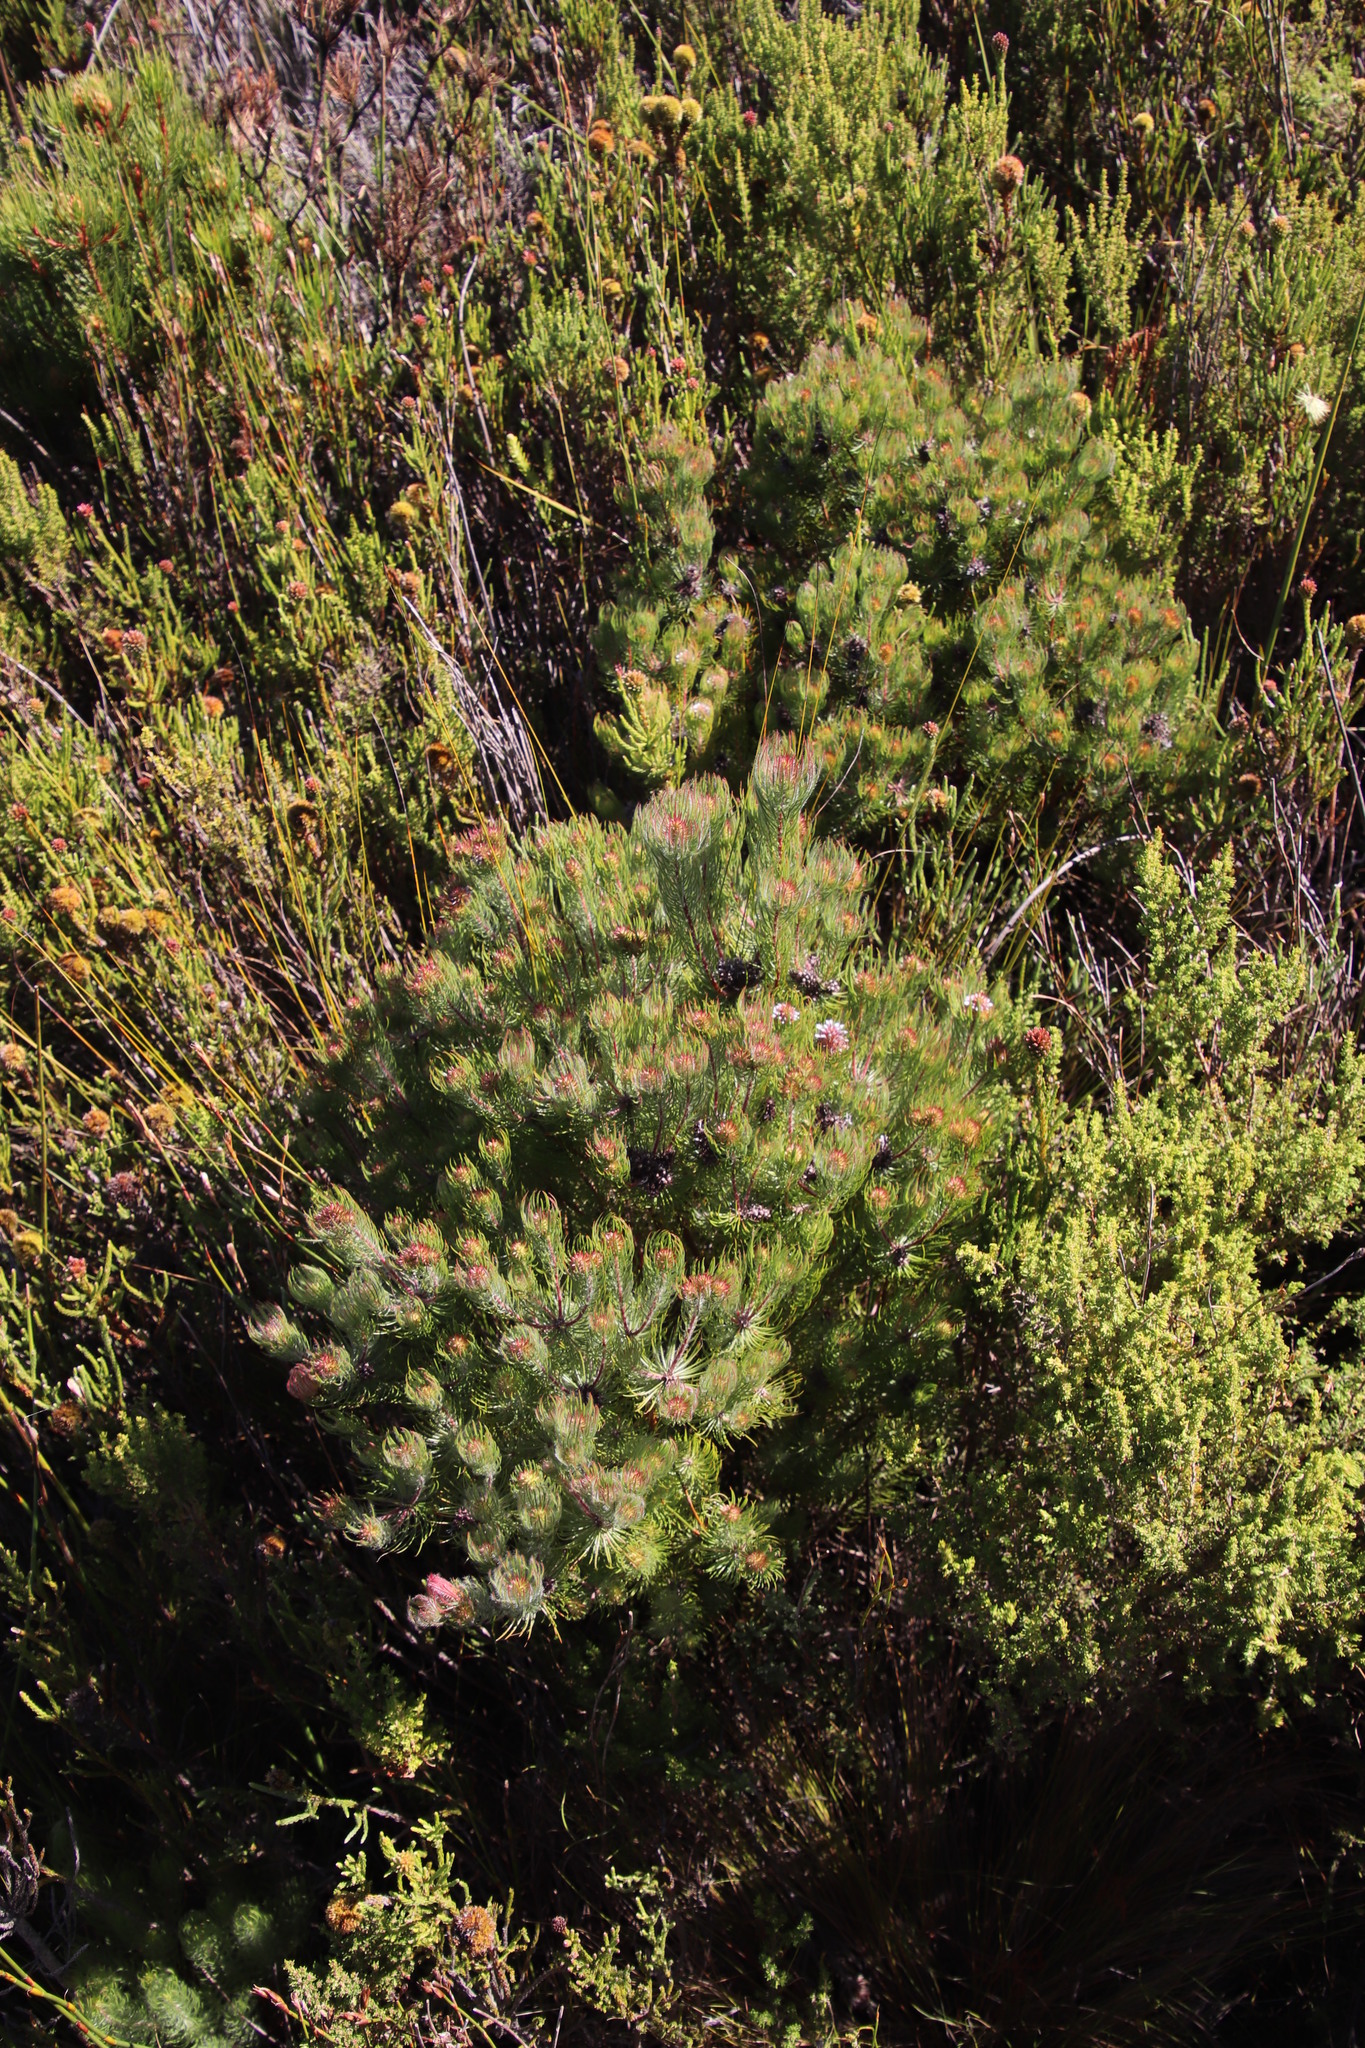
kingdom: Plantae
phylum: Tracheophyta
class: Magnoliopsida
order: Proteales
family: Proteaceae
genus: Spatalla
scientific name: Spatalla setacea
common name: Needle-leaf spoon
